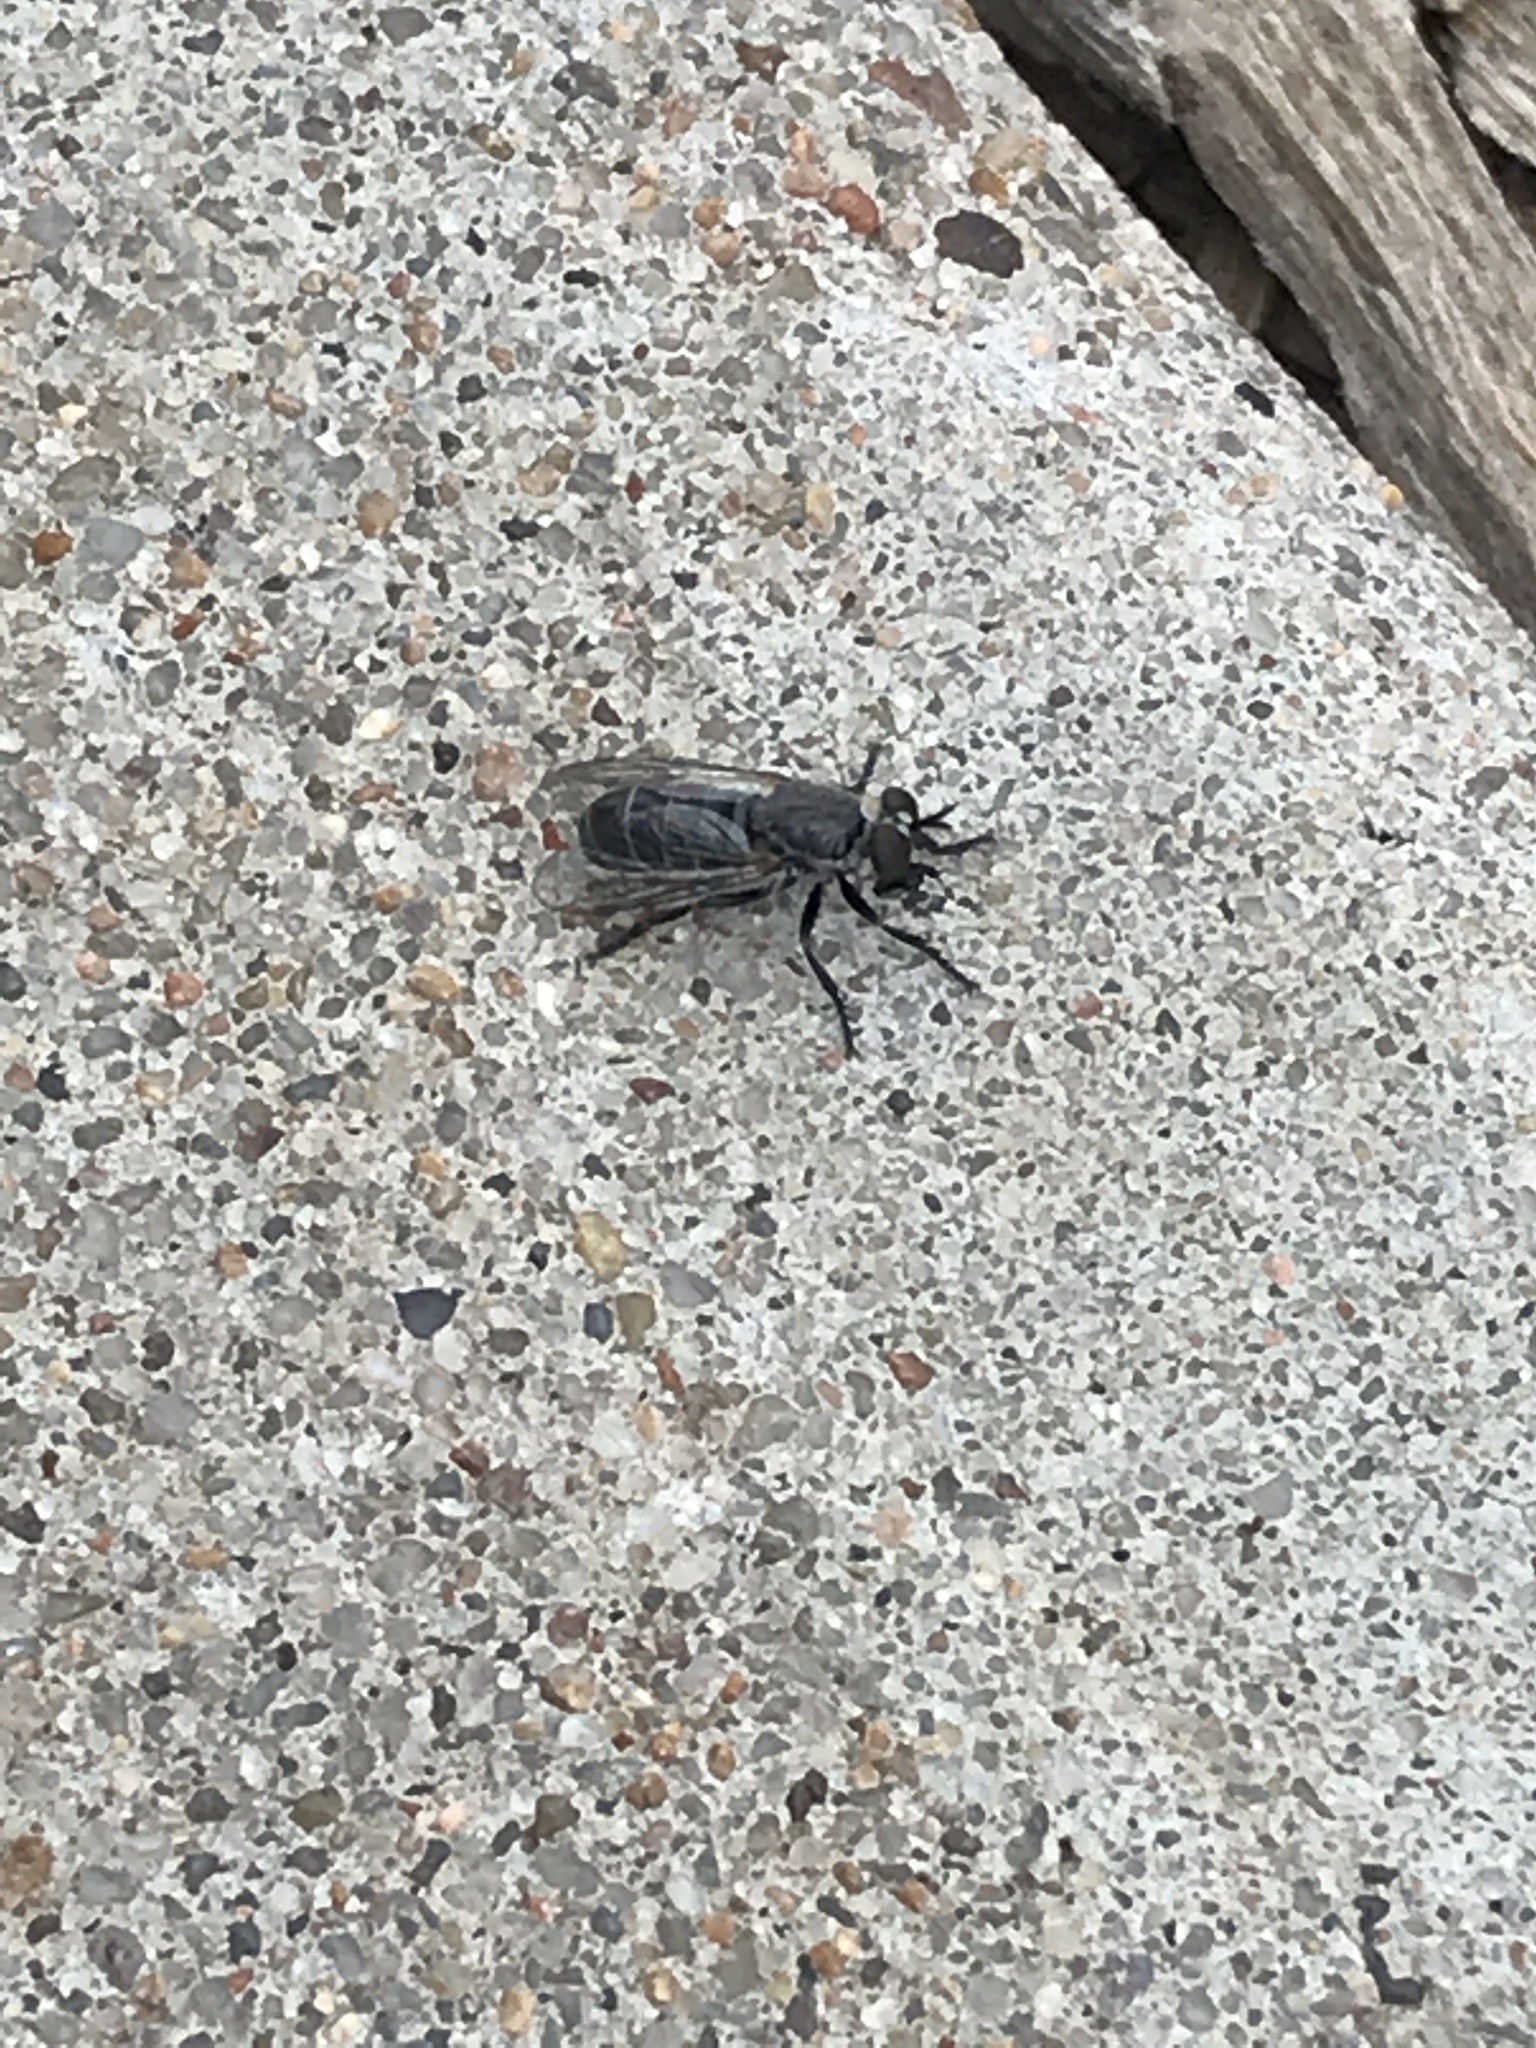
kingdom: Animalia
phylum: Arthropoda
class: Insecta
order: Diptera
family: Asilidae
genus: Atomosia
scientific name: Atomosia
